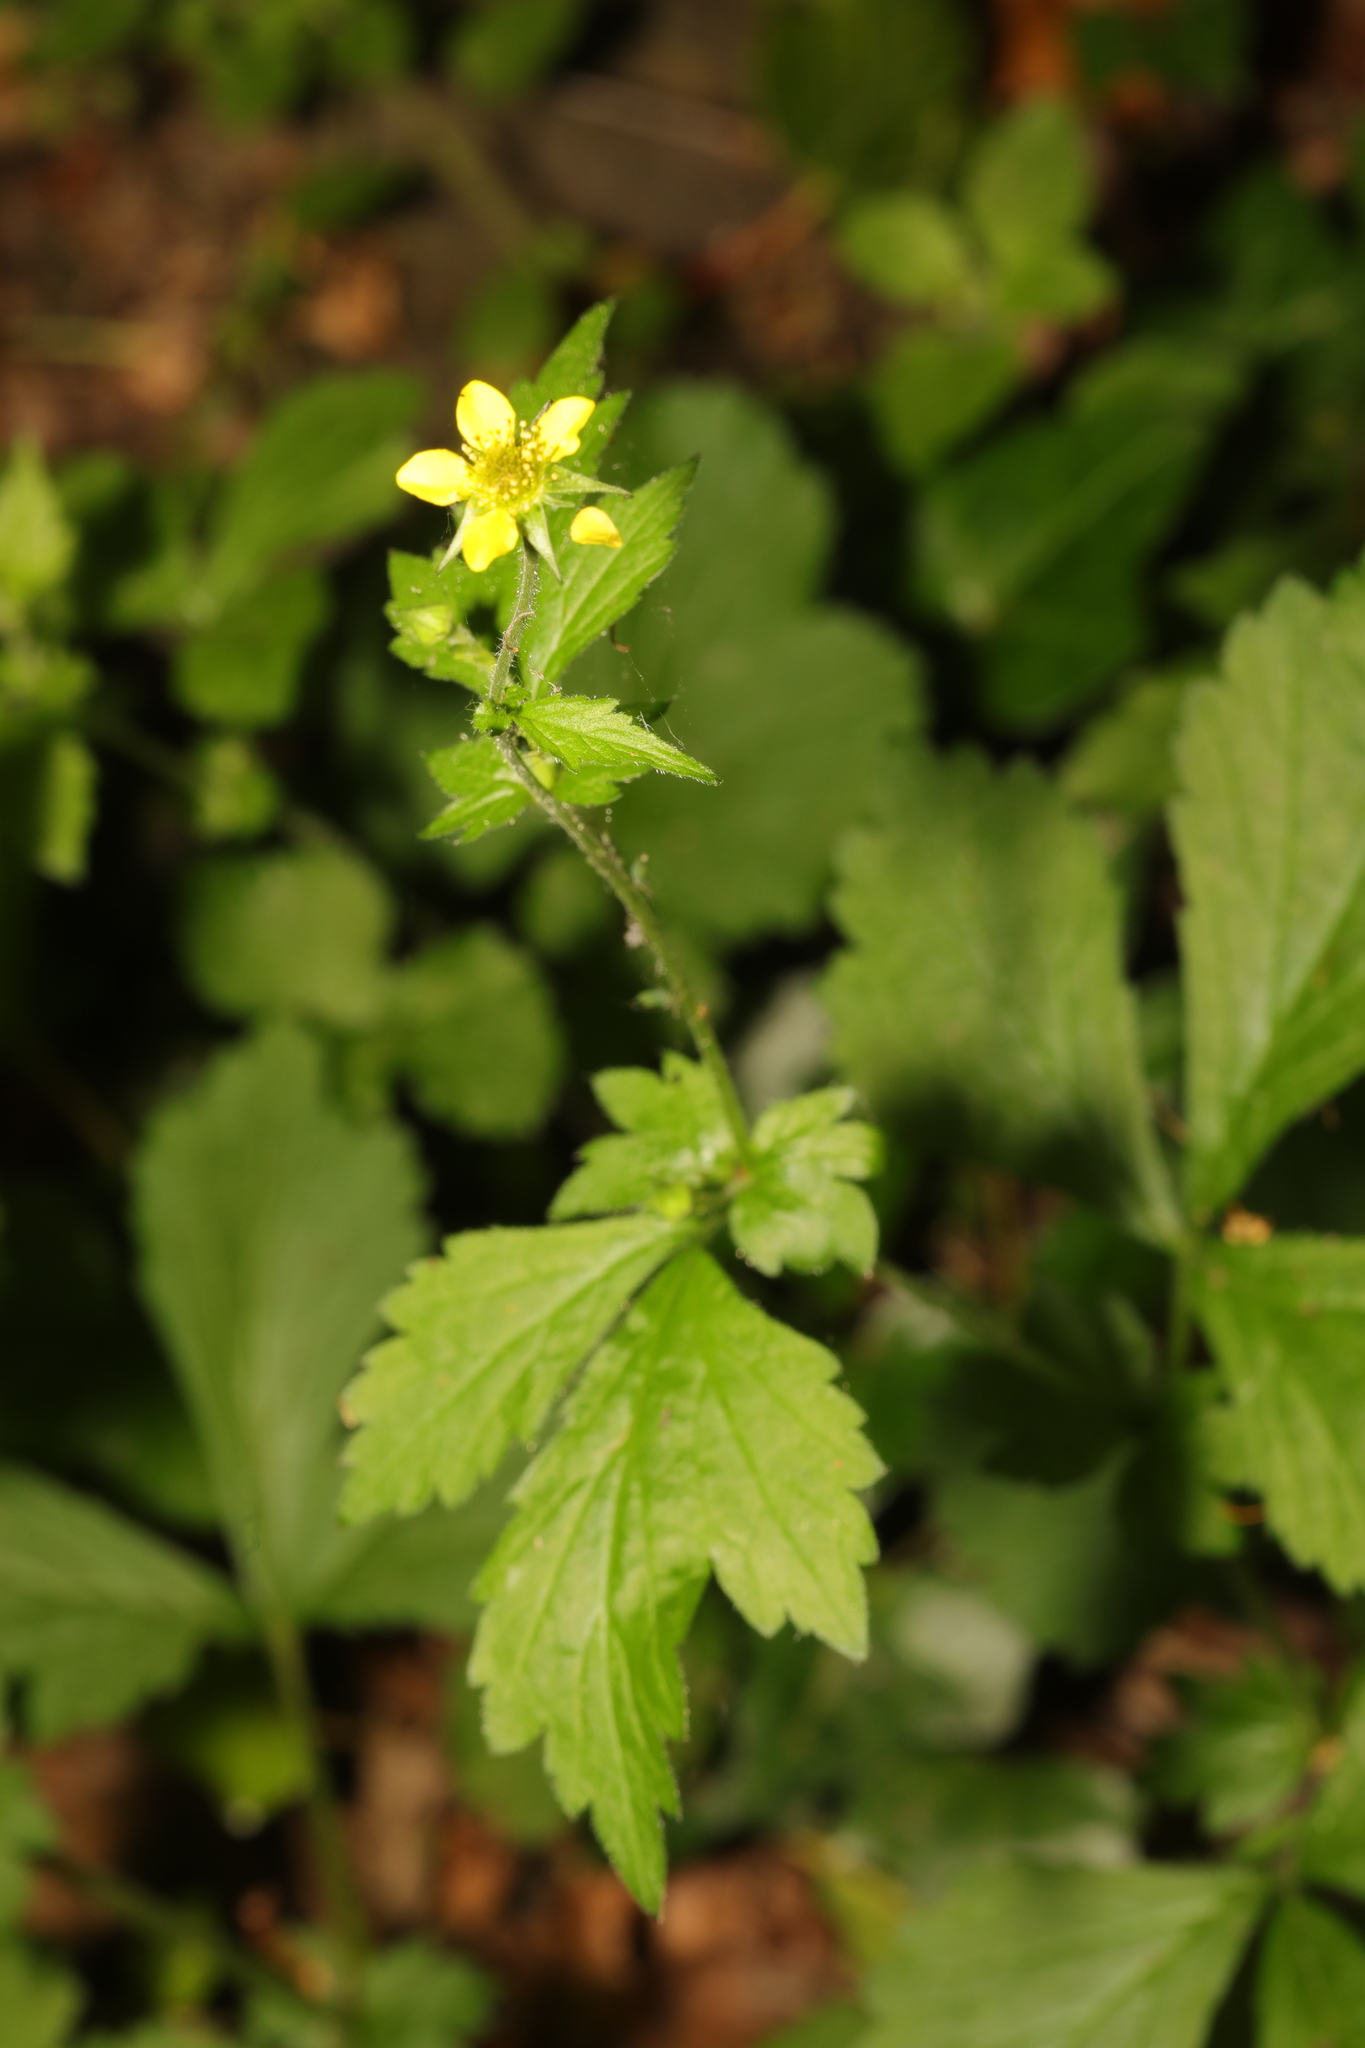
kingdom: Plantae
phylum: Tracheophyta
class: Magnoliopsida
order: Rosales
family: Rosaceae
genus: Geum
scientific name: Geum urbanum
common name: Wood avens
